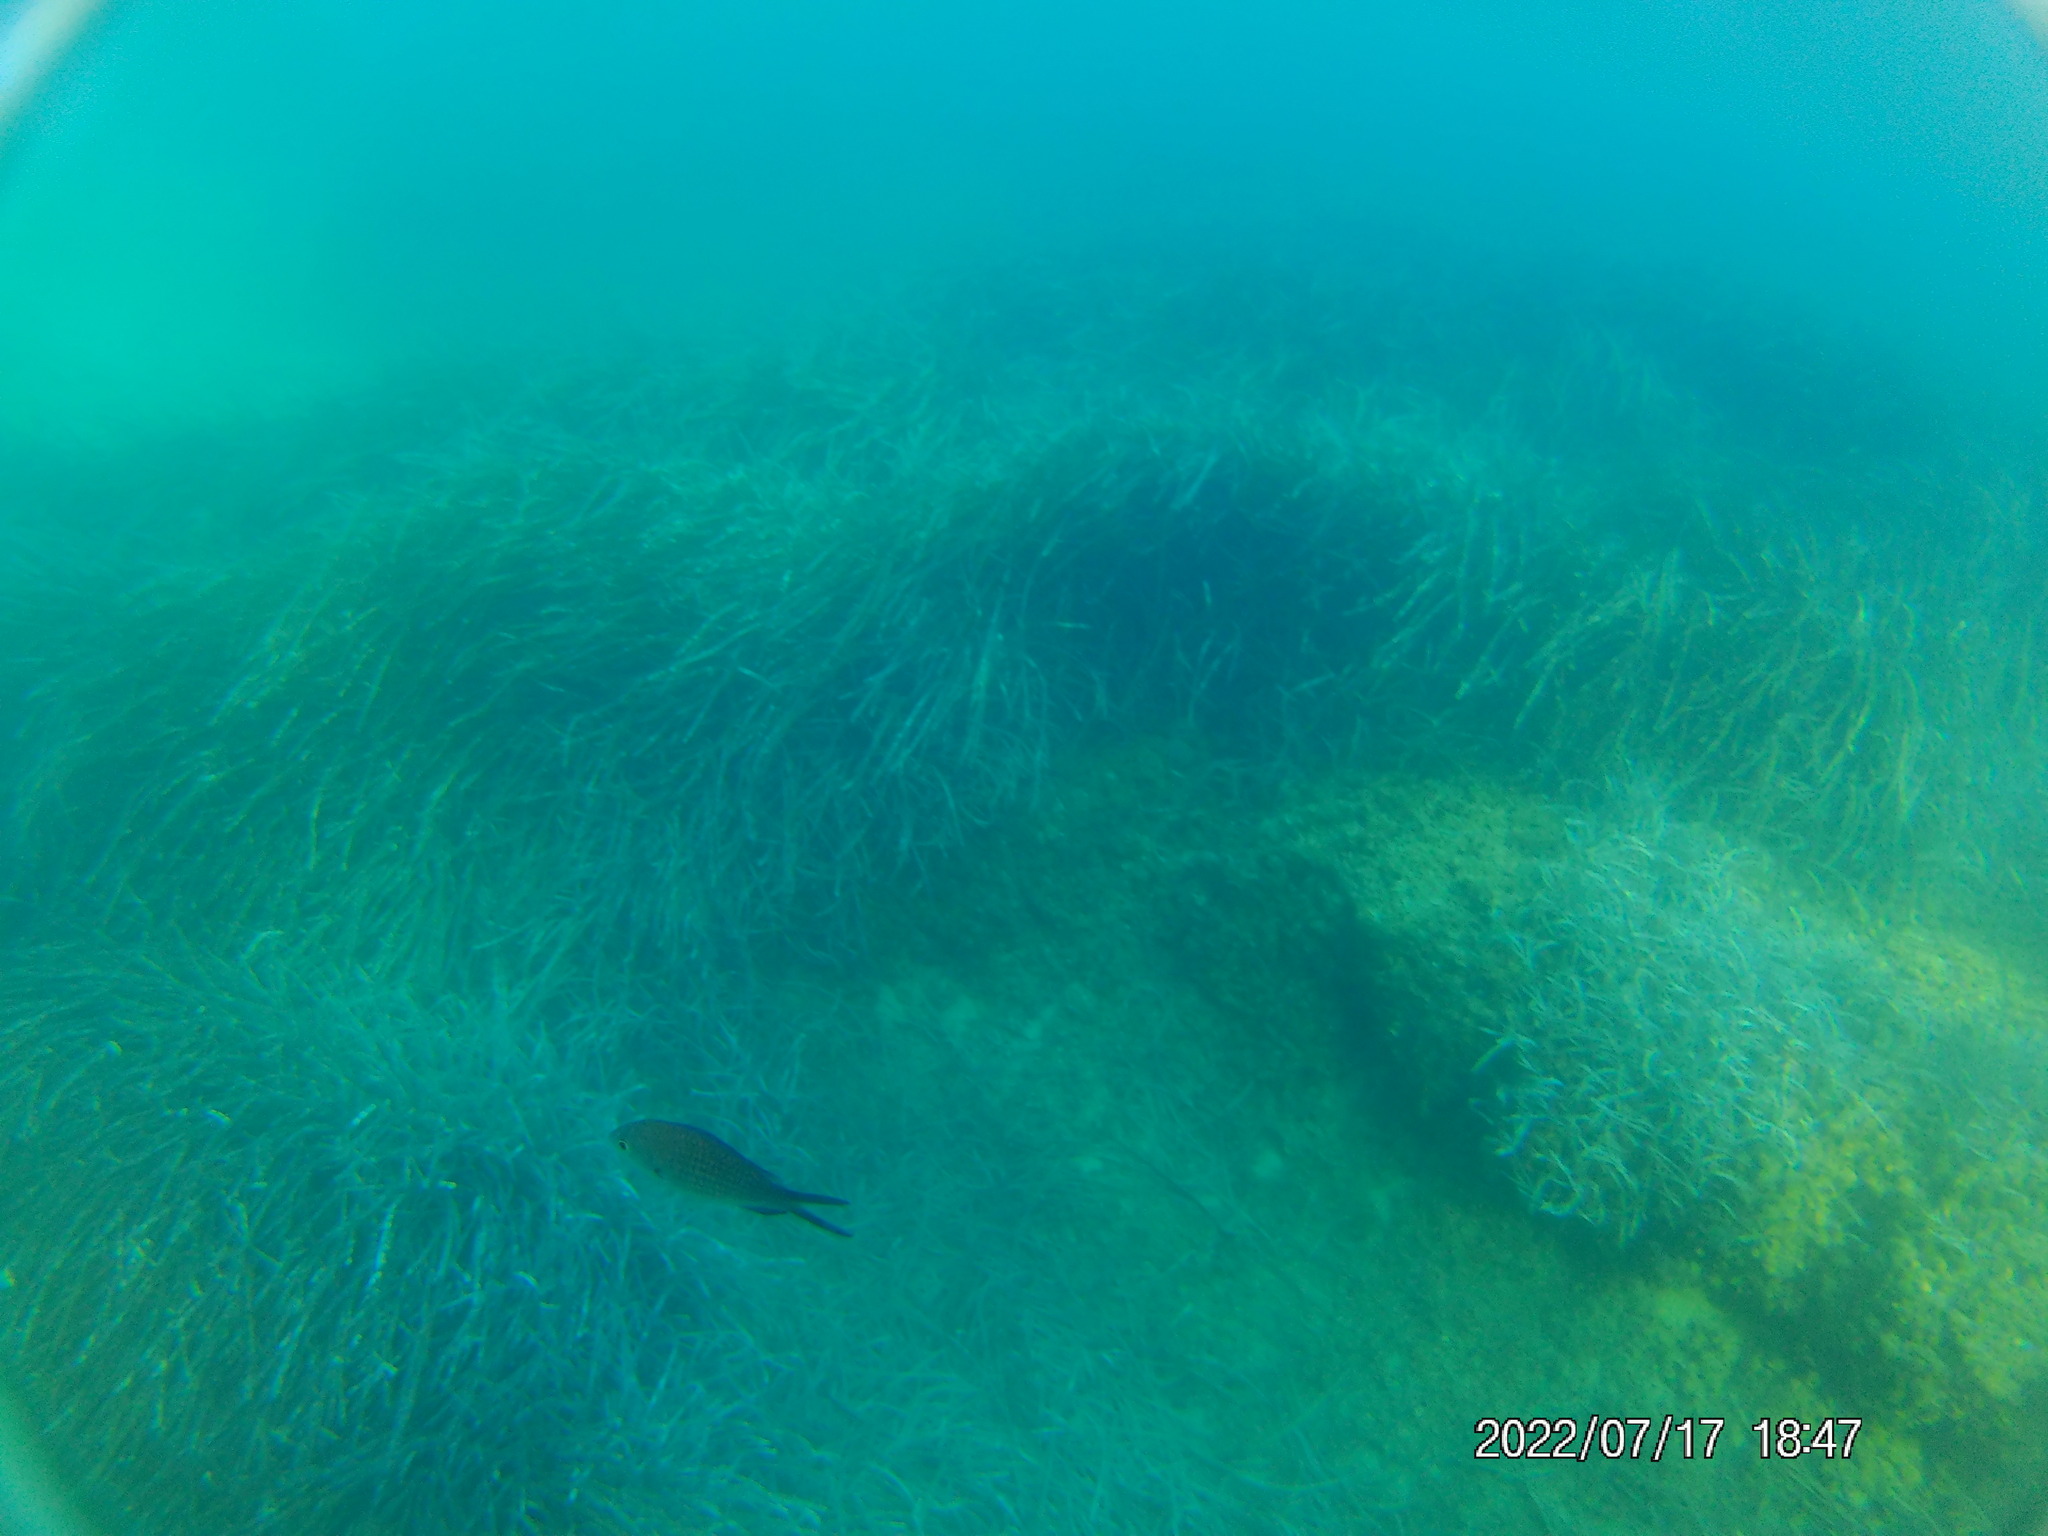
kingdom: Animalia
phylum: Chordata
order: Perciformes
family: Pomacentridae
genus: Chromis
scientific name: Chromis chromis
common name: Damselfish
